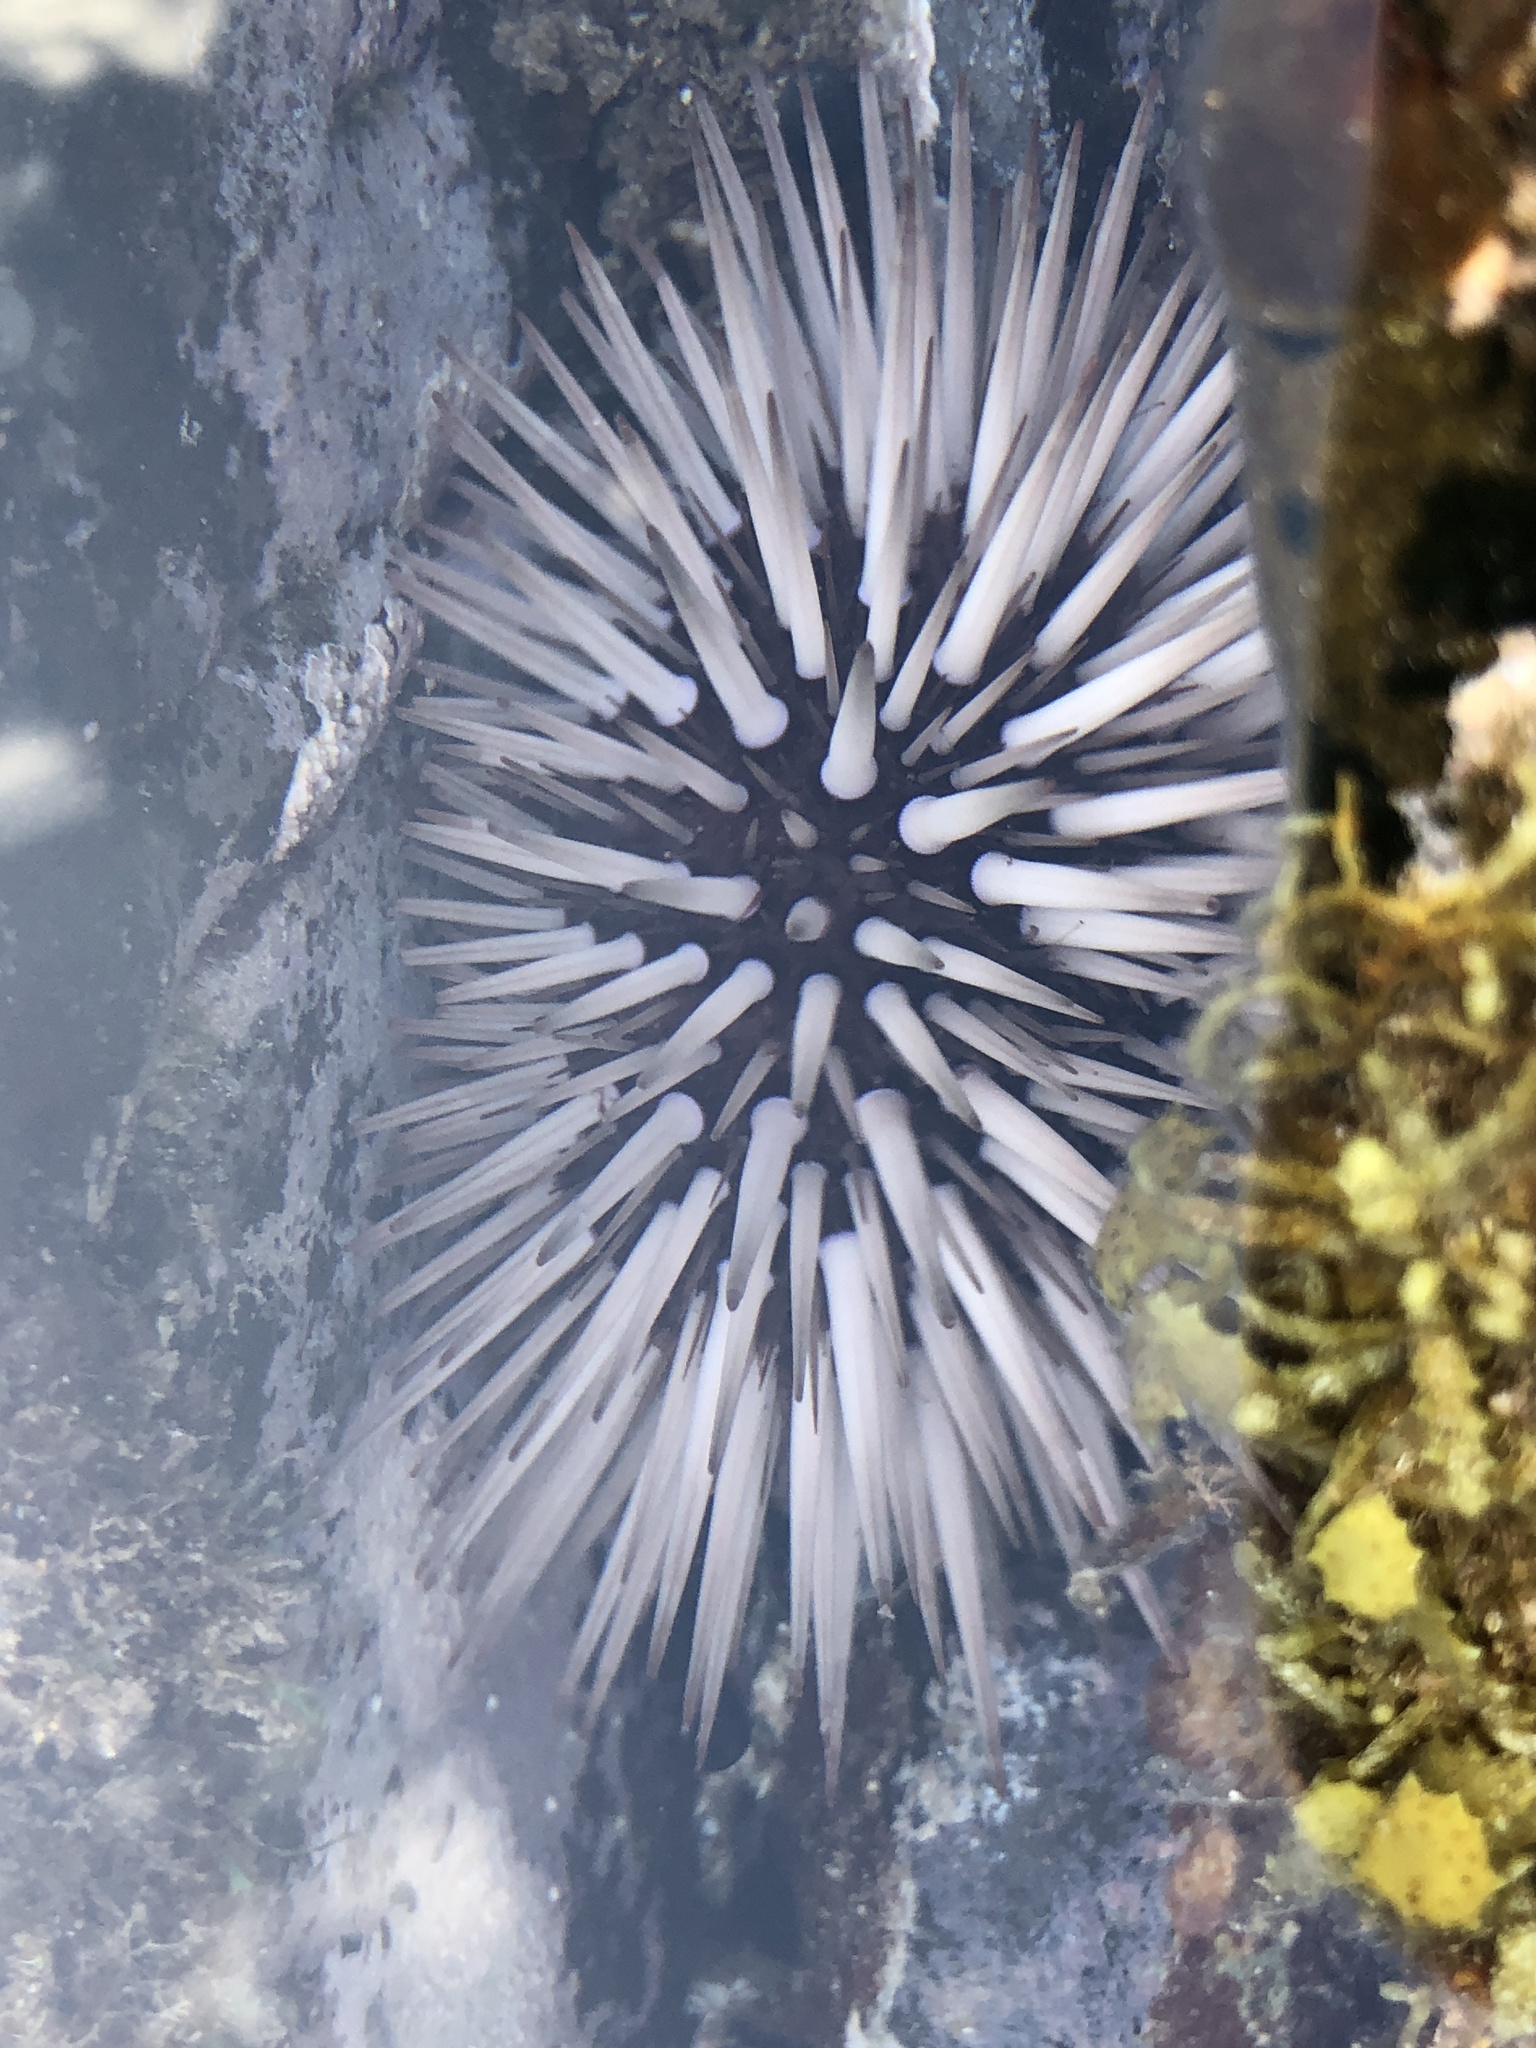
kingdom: Animalia
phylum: Echinodermata
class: Echinoidea
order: Camarodonta
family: Echinometridae
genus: Echinometra
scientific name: Echinometra mathaei
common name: Rock-boring urchin
